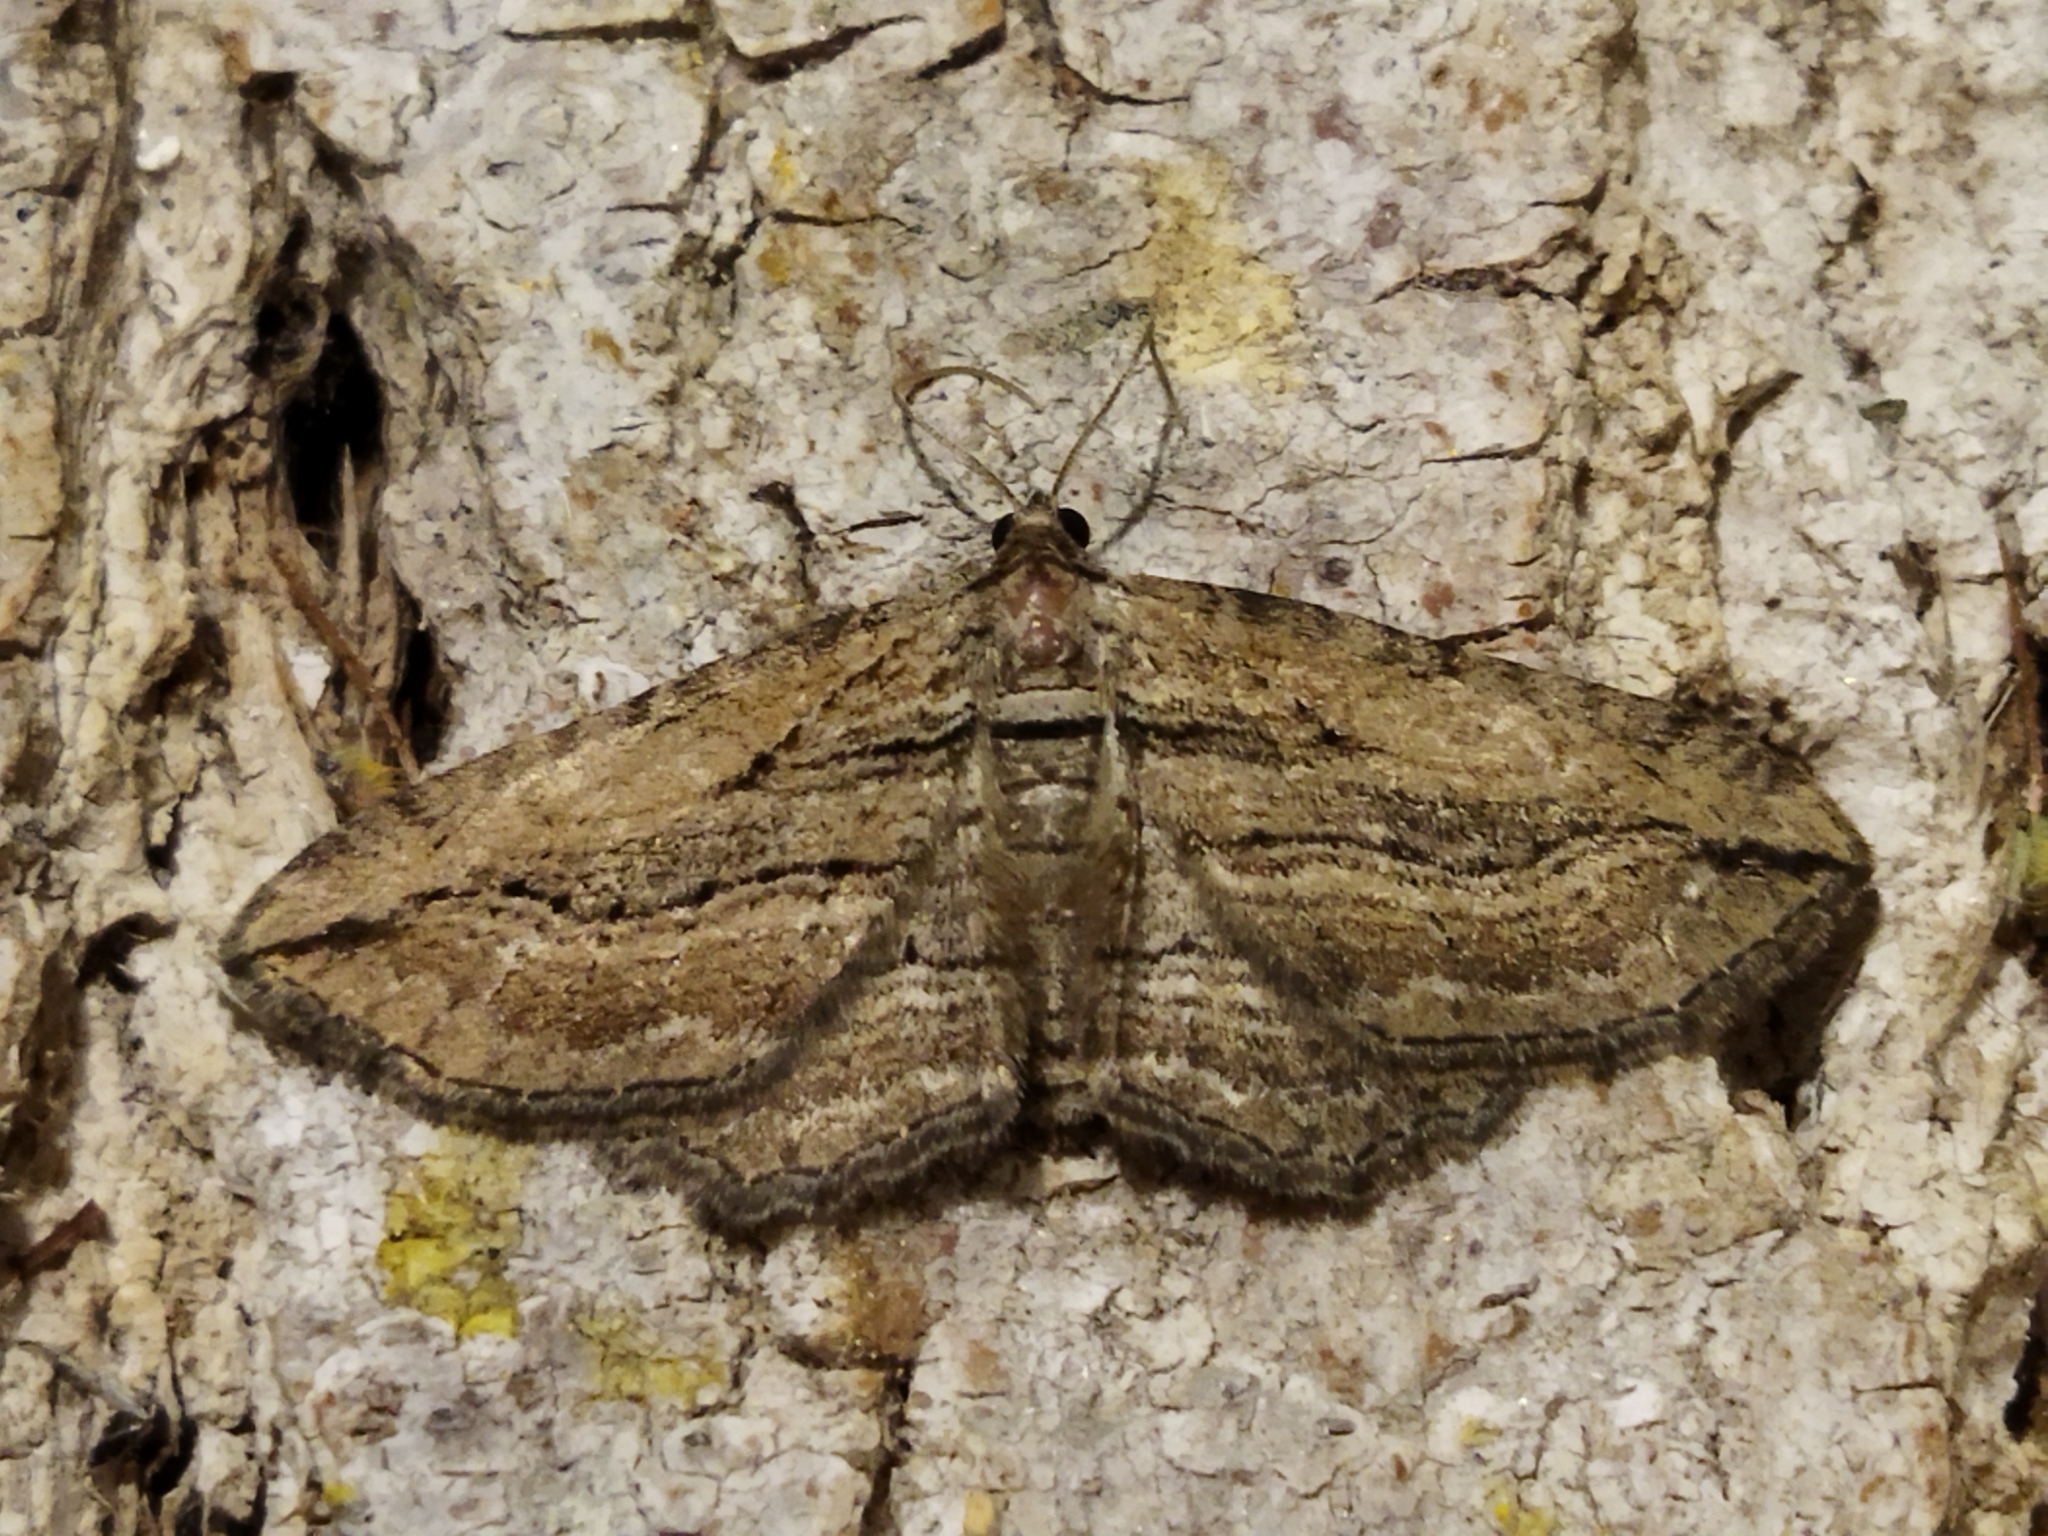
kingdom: Animalia
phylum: Arthropoda
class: Insecta
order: Lepidoptera
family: Geometridae
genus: Horisme
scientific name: Horisme tersata
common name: Fern
